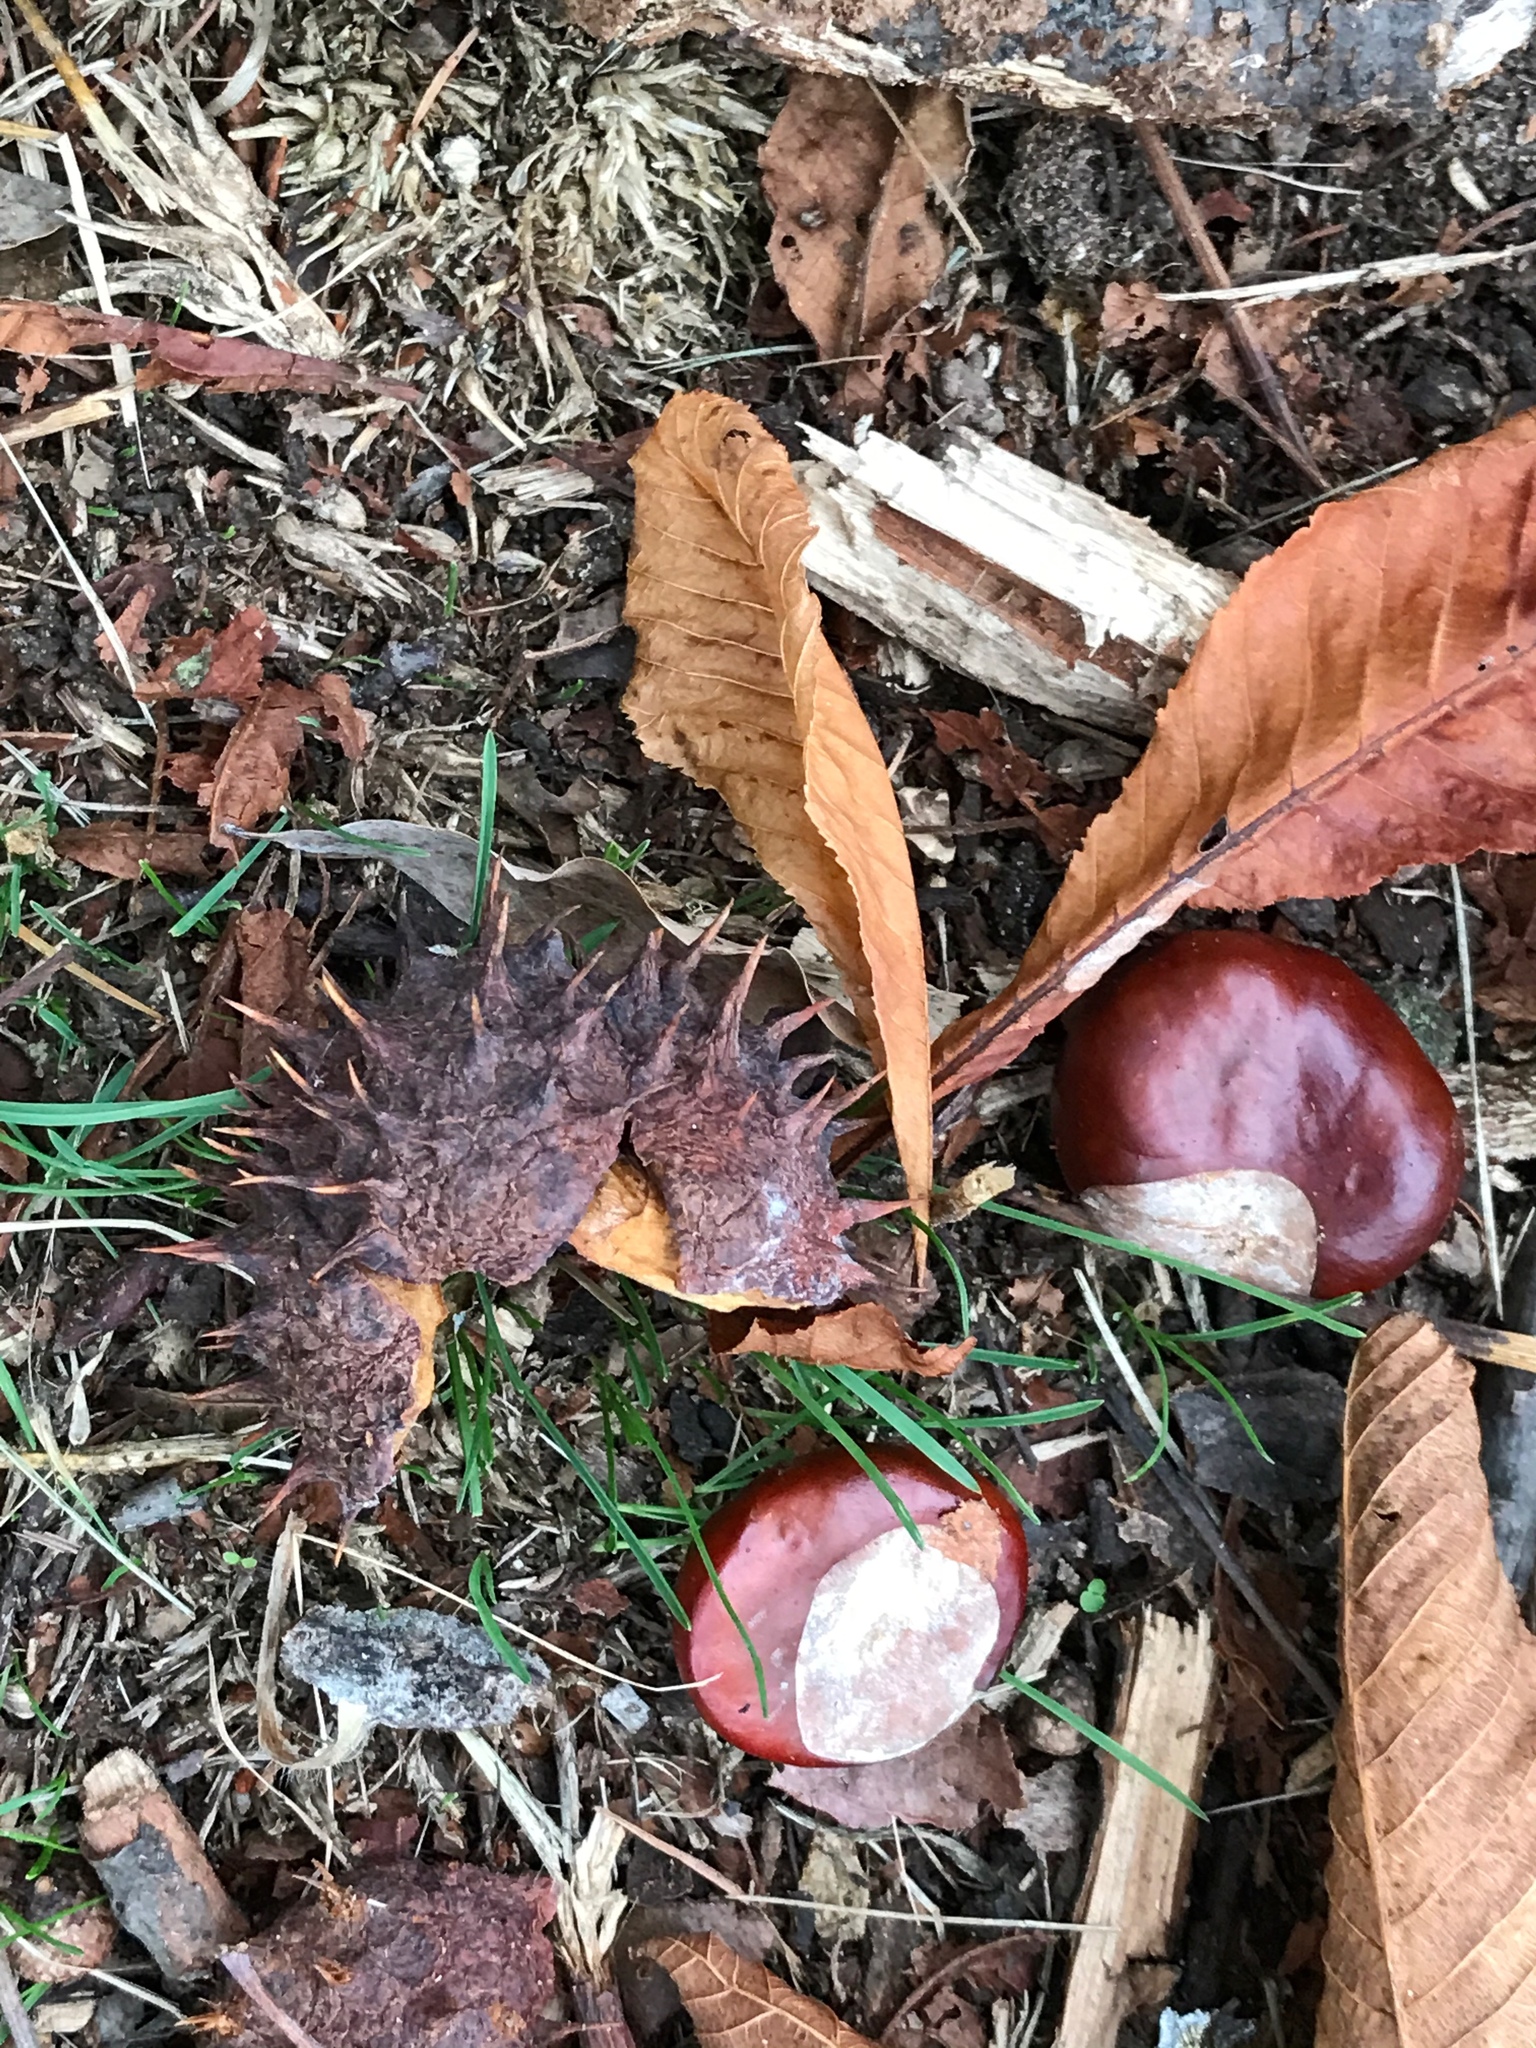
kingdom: Plantae
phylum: Tracheophyta
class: Magnoliopsida
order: Sapindales
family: Sapindaceae
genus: Aesculus
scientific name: Aesculus hippocastanum
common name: Horse-chestnut
